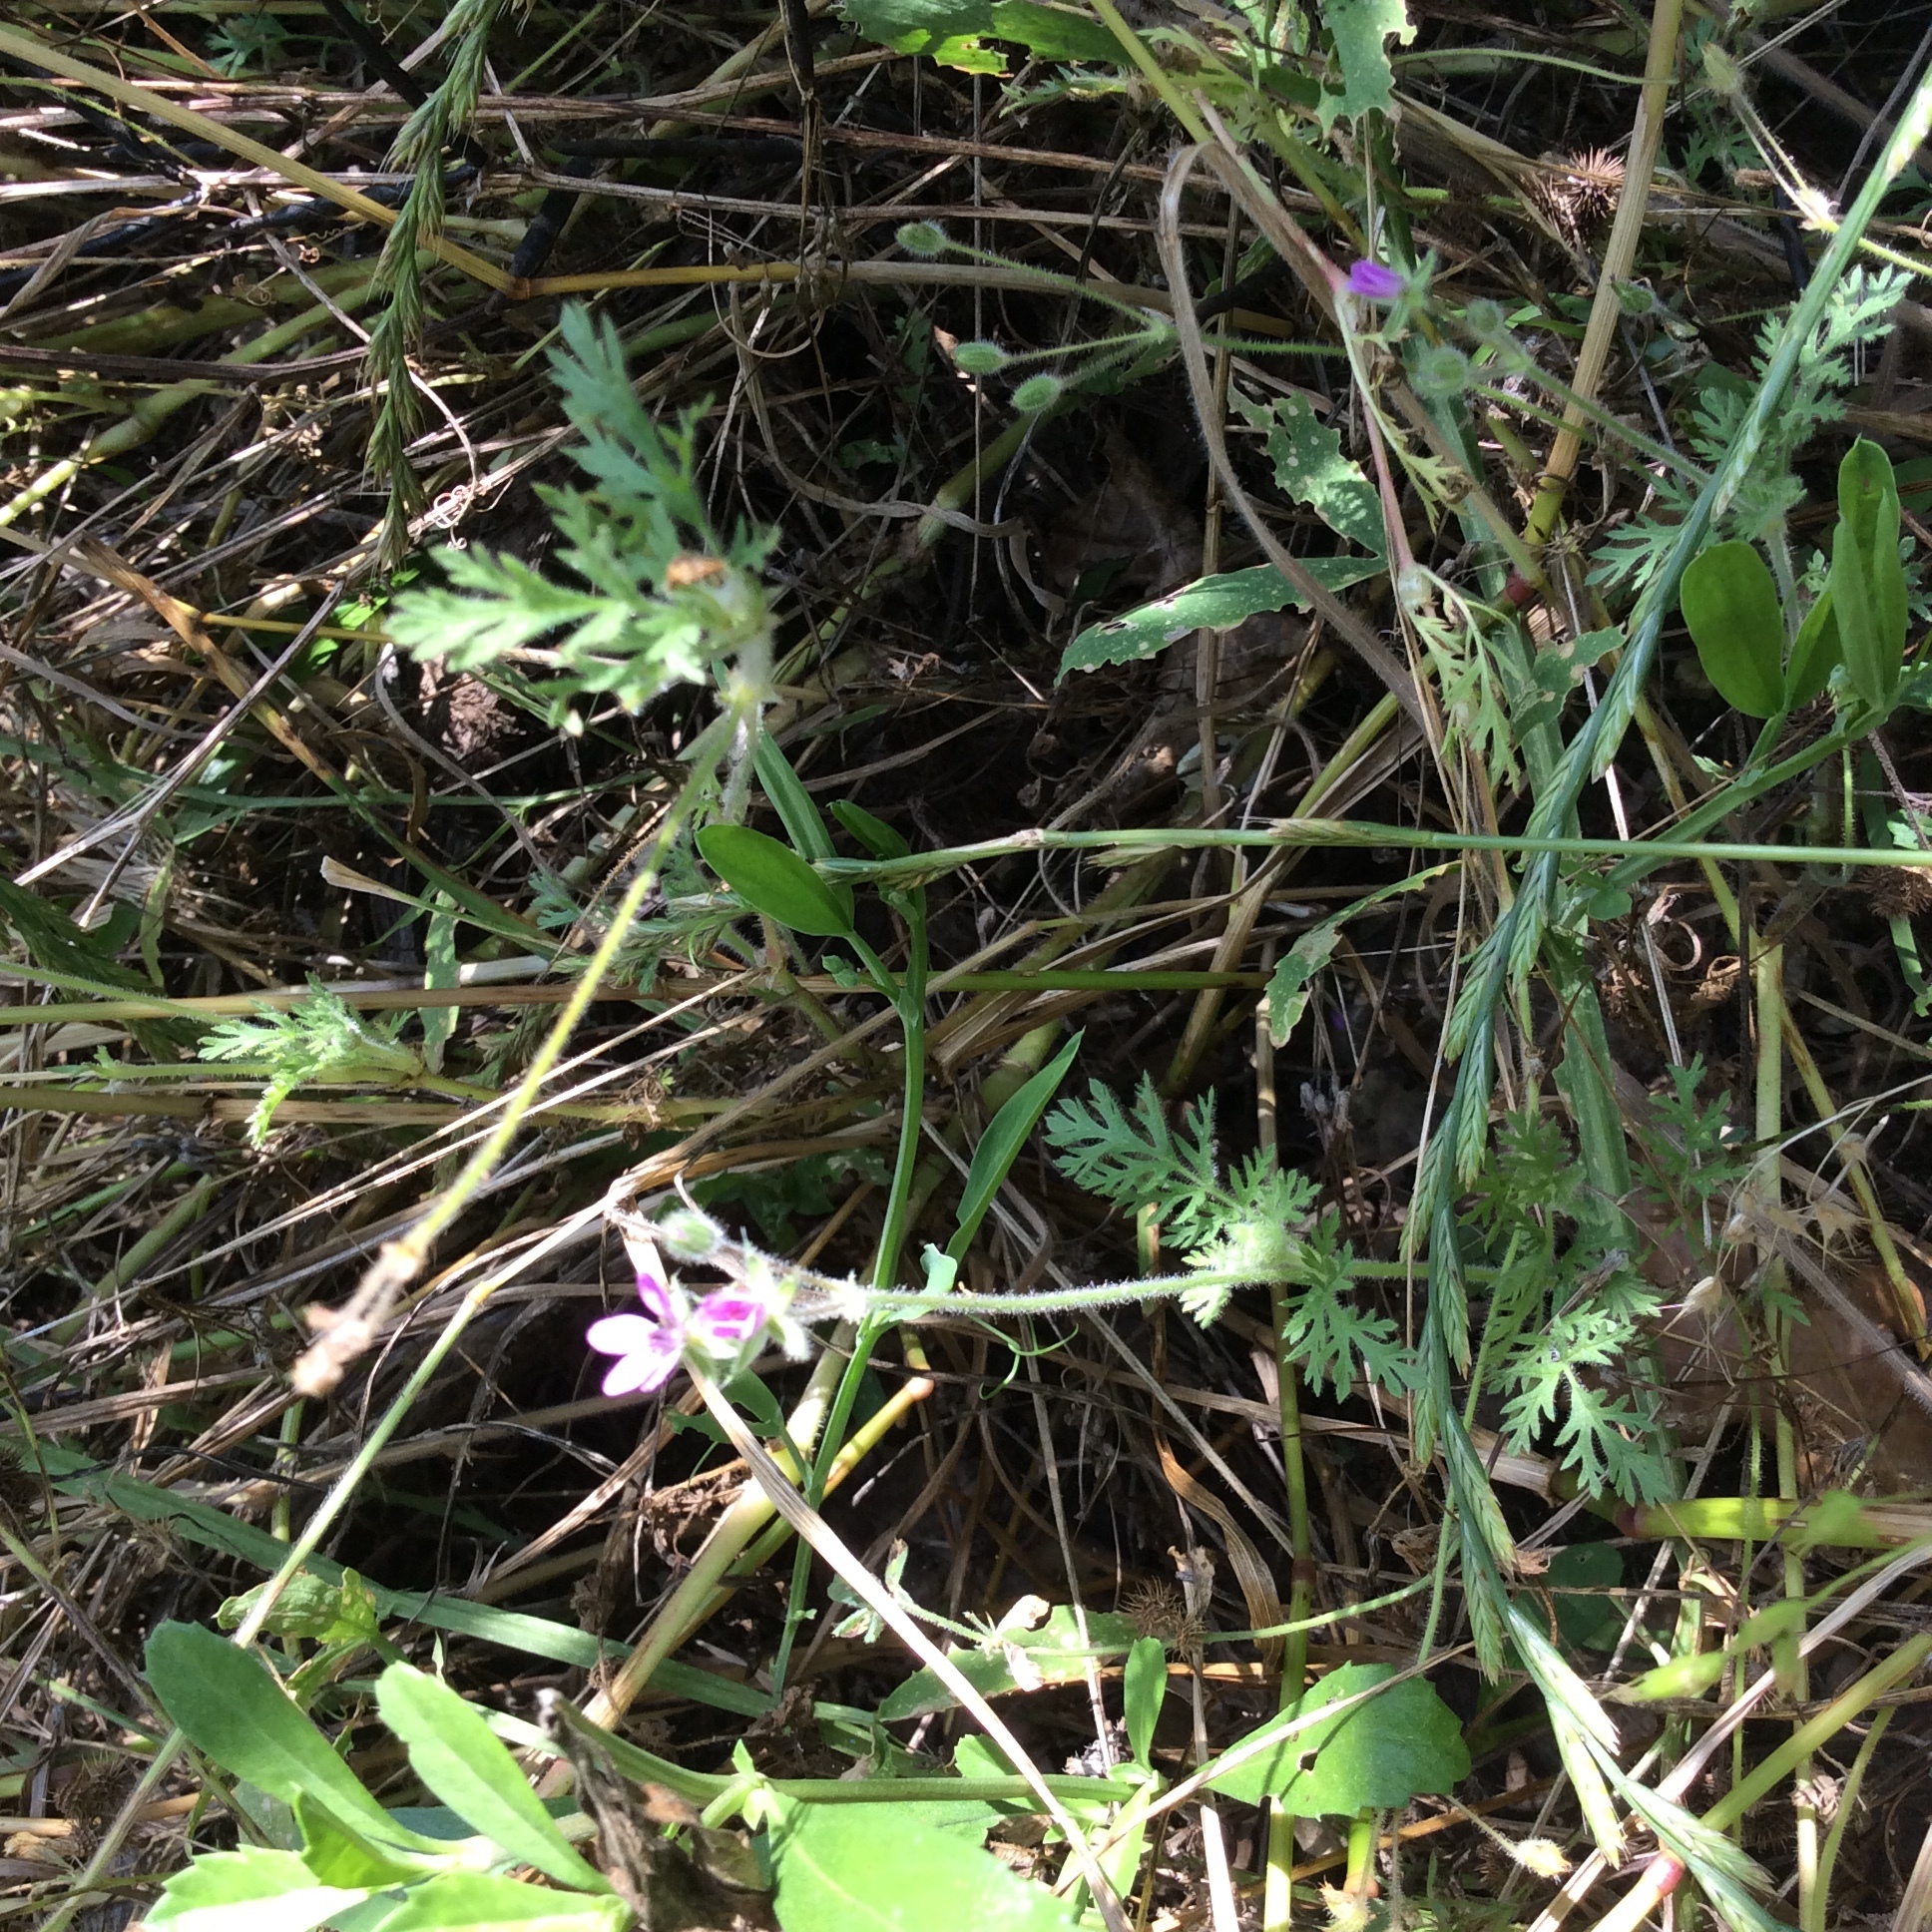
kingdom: Plantae
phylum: Tracheophyta
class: Magnoliopsida
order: Geraniales
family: Geraniaceae
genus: Erodium
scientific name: Erodium cicutarium
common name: Common stork's-bill
